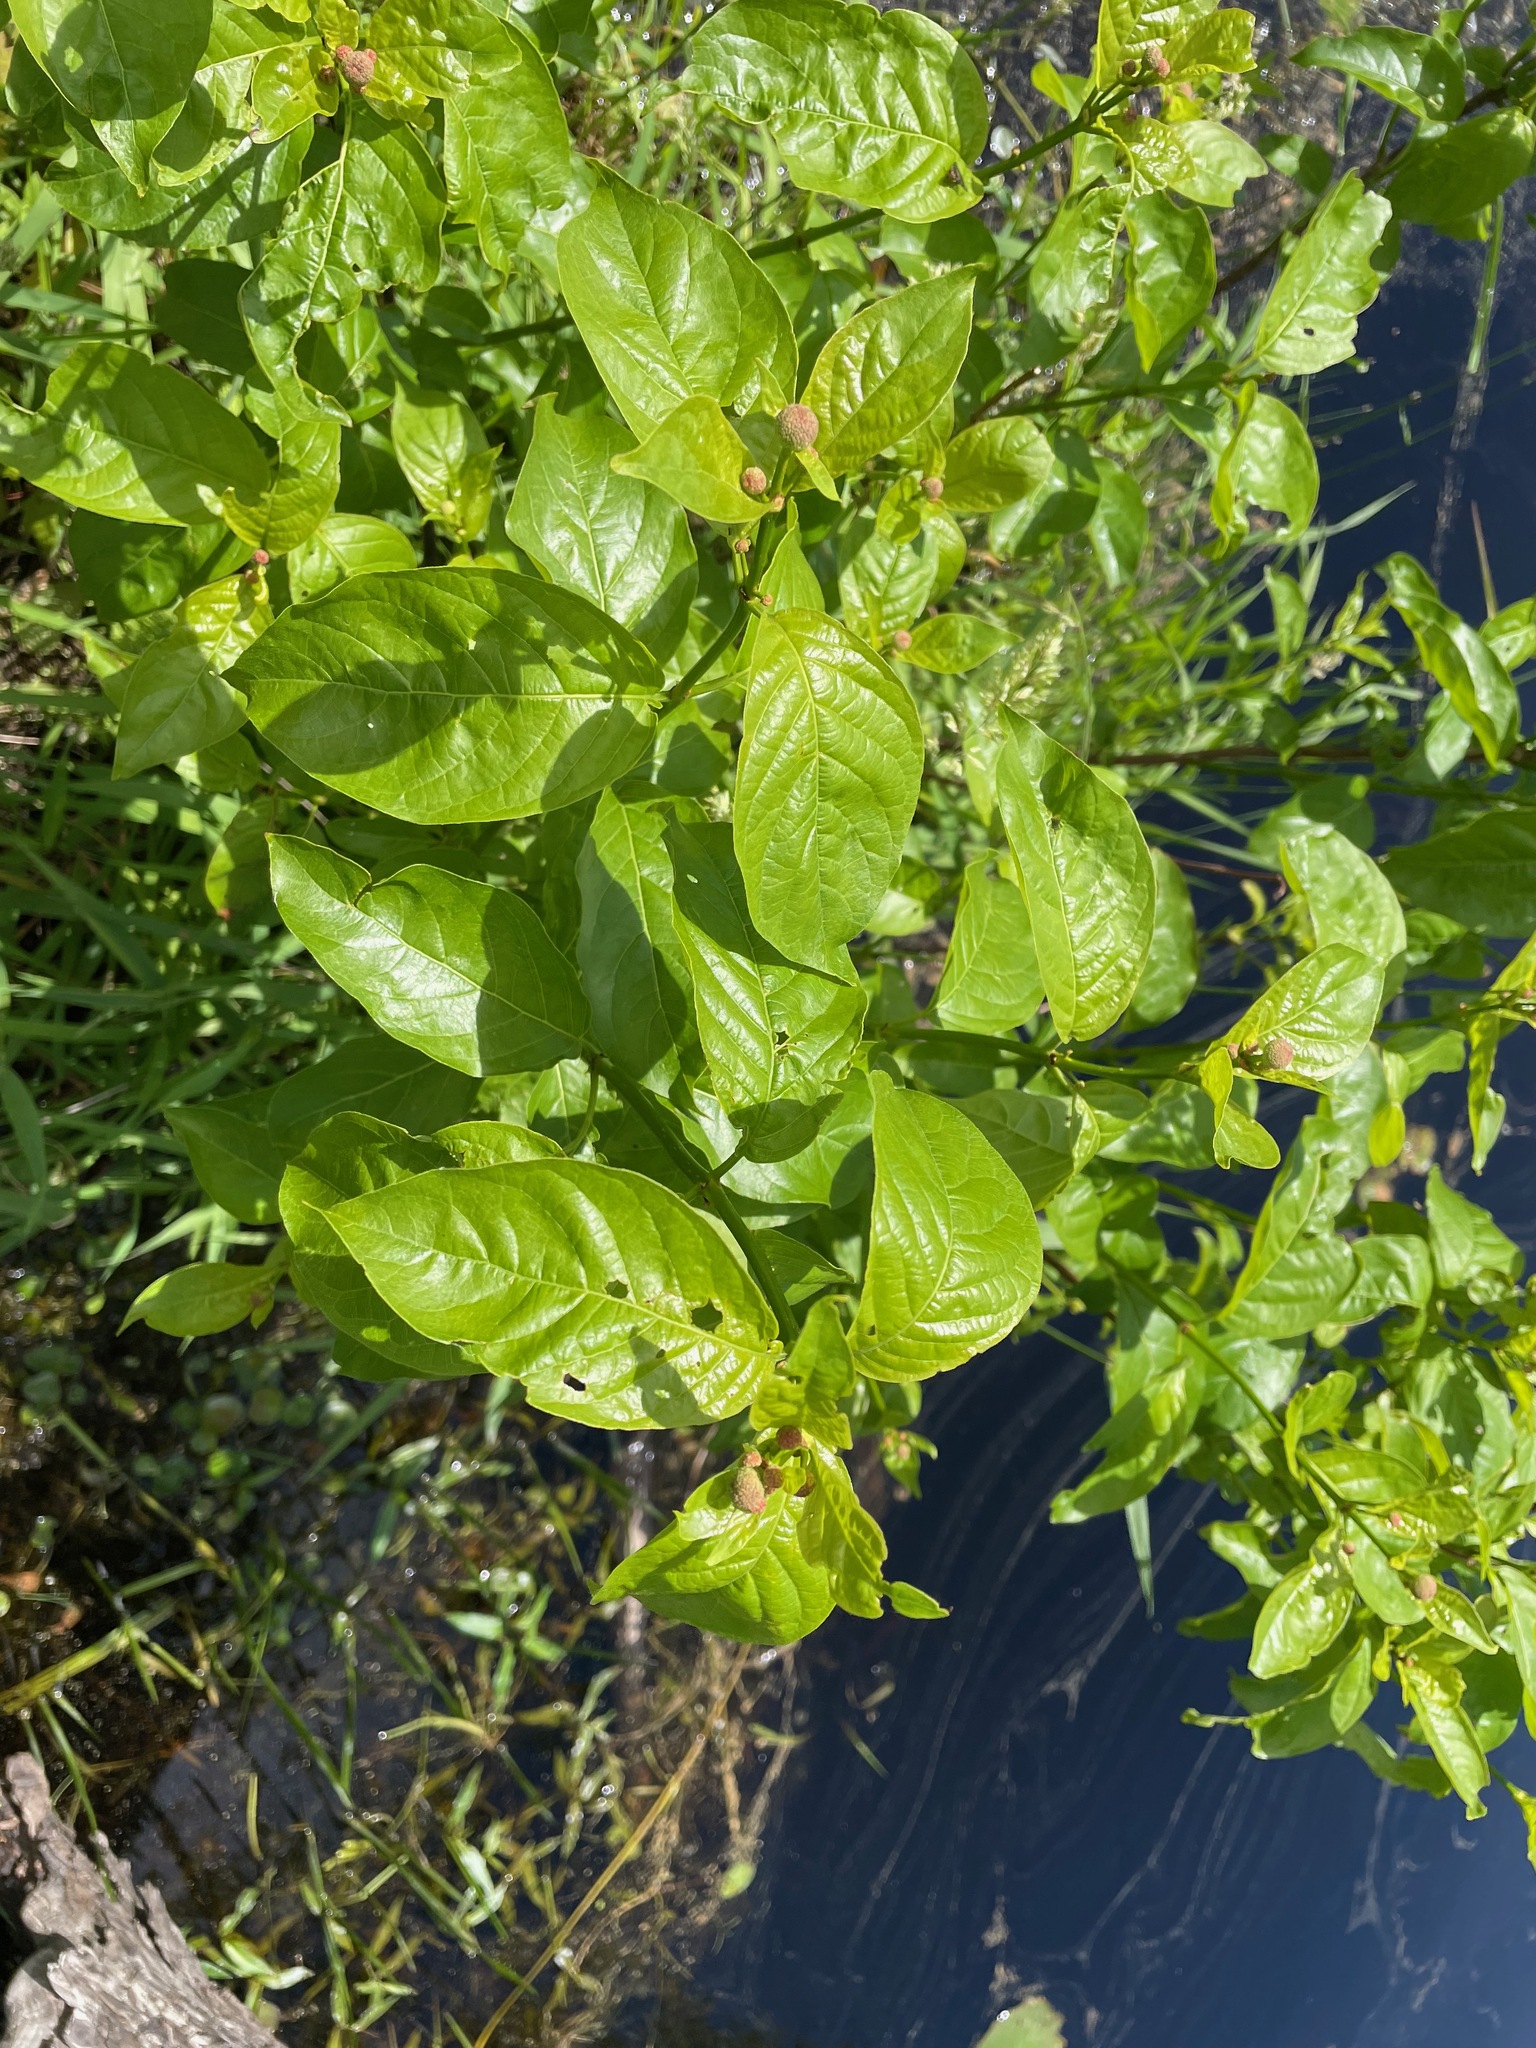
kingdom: Plantae
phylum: Tracheophyta
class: Magnoliopsida
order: Gentianales
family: Rubiaceae
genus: Cephalanthus
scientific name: Cephalanthus occidentalis
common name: Button-willow
